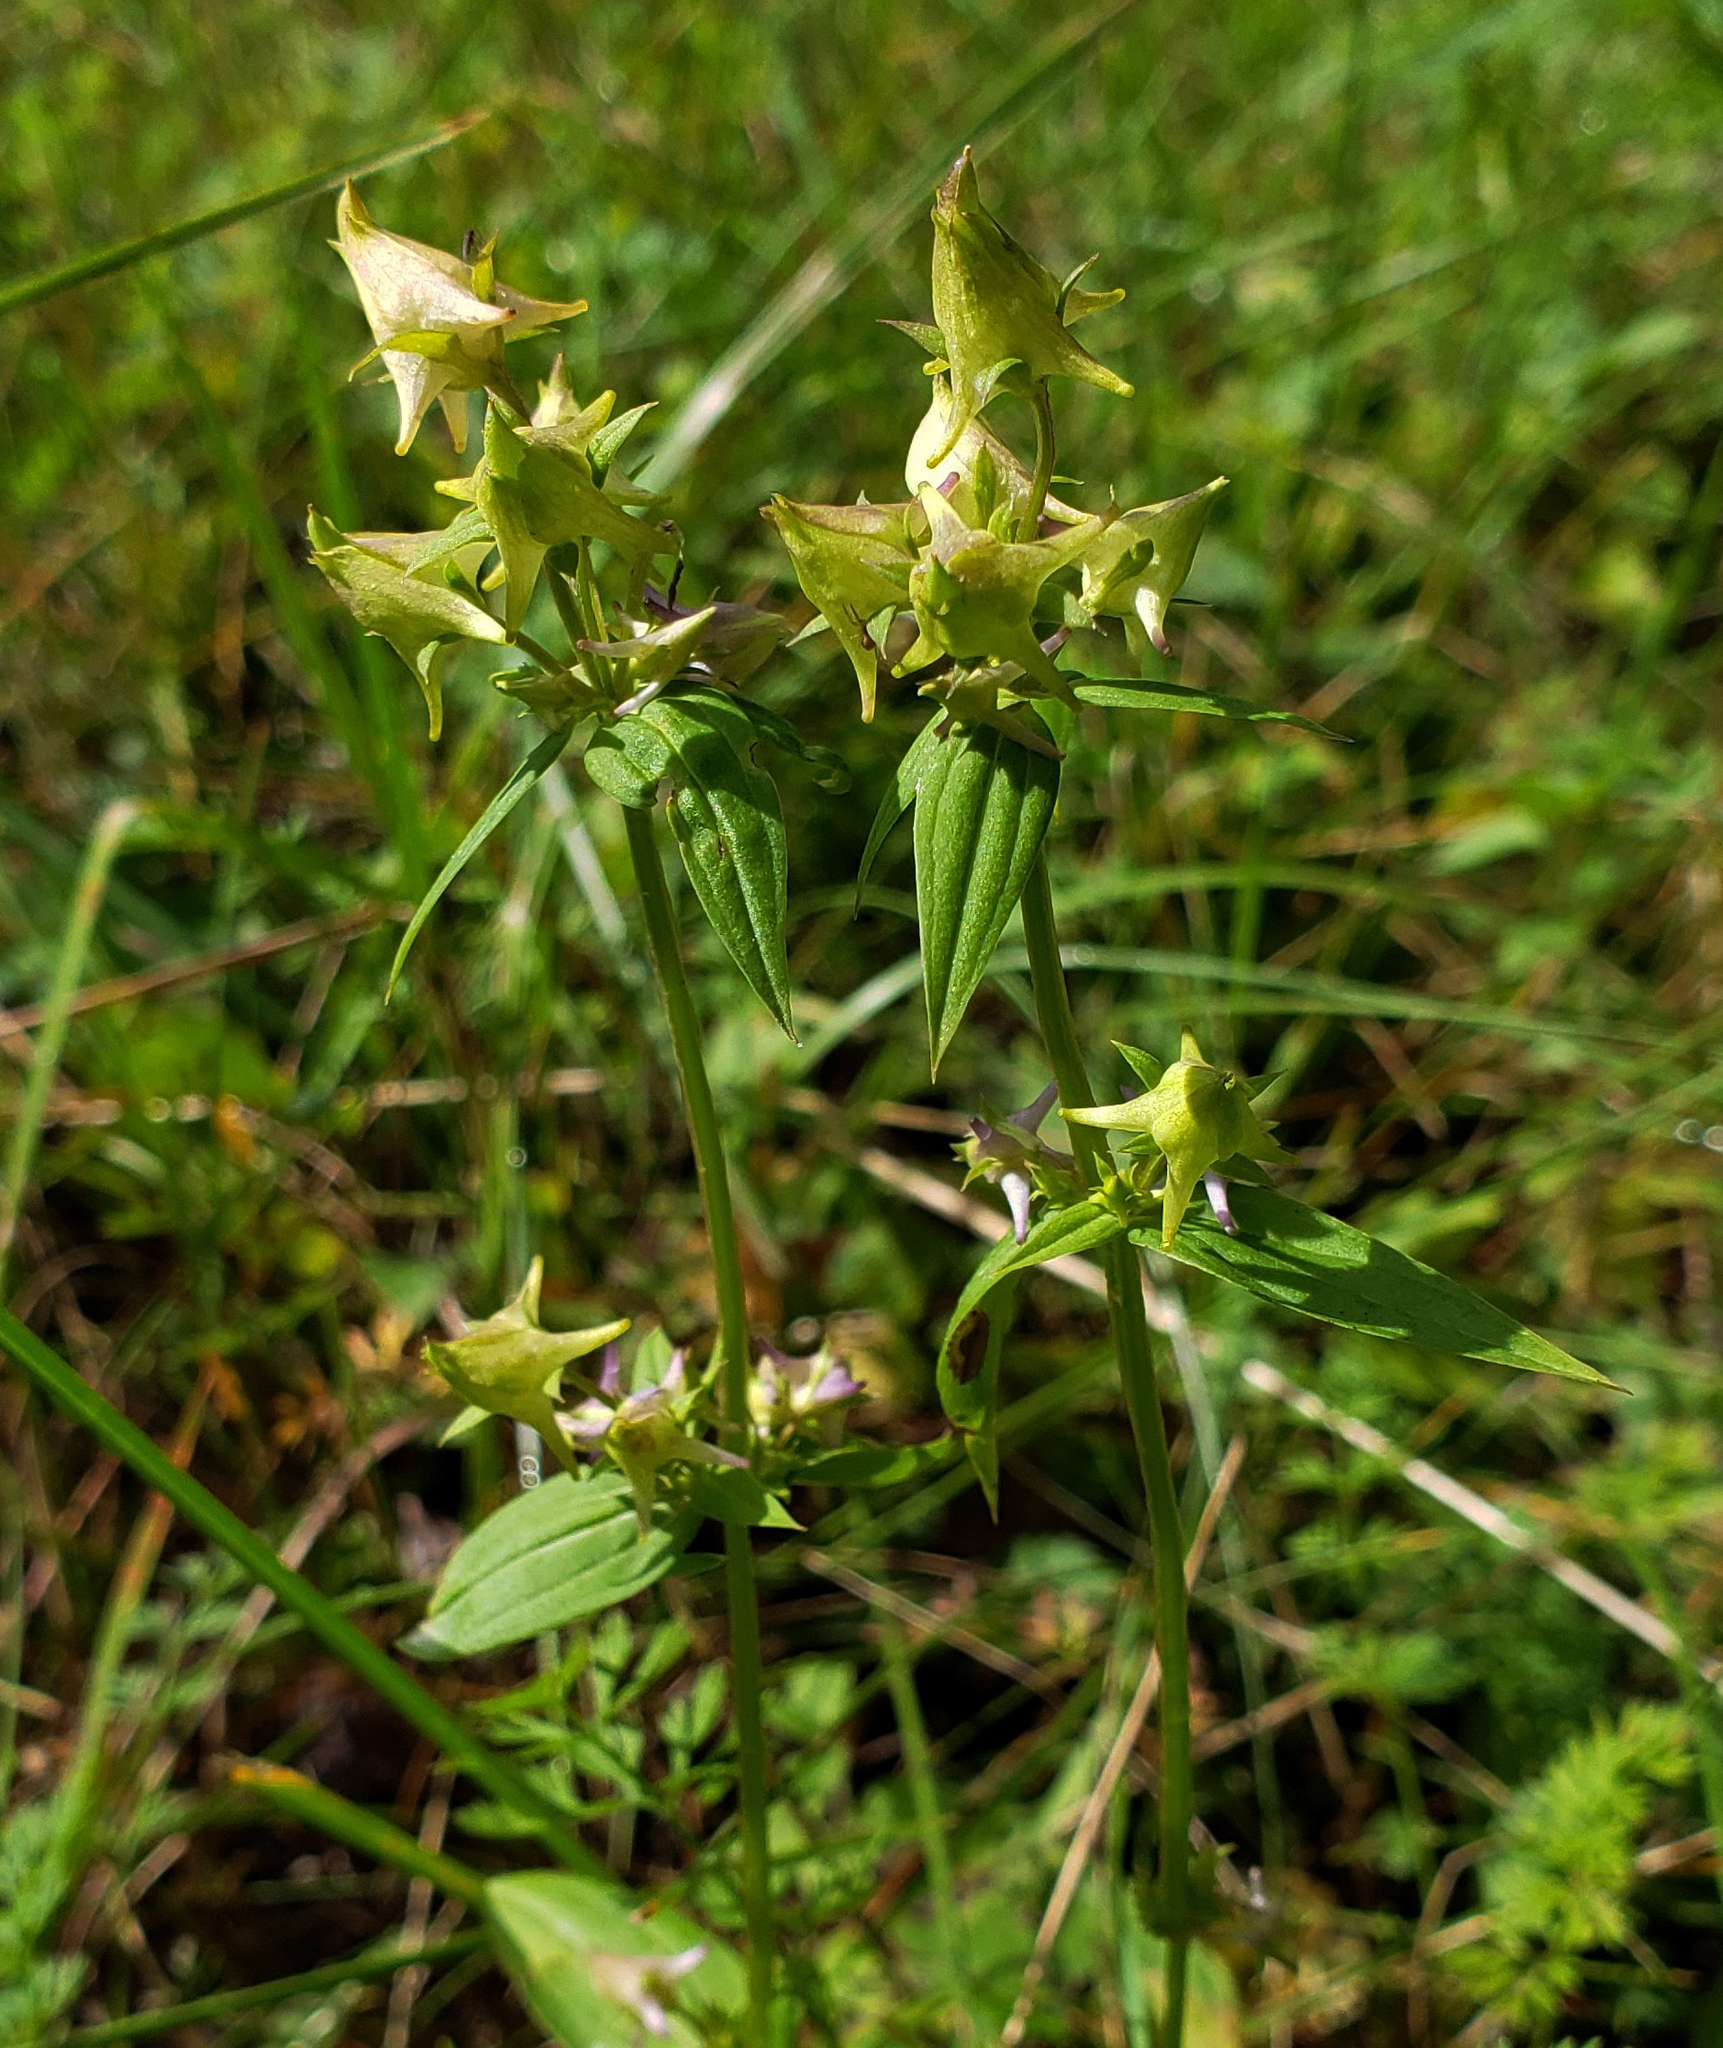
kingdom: Plantae
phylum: Tracheophyta
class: Magnoliopsida
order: Gentianales
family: Gentianaceae
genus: Halenia
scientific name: Halenia deflexa
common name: American spurred gentian
